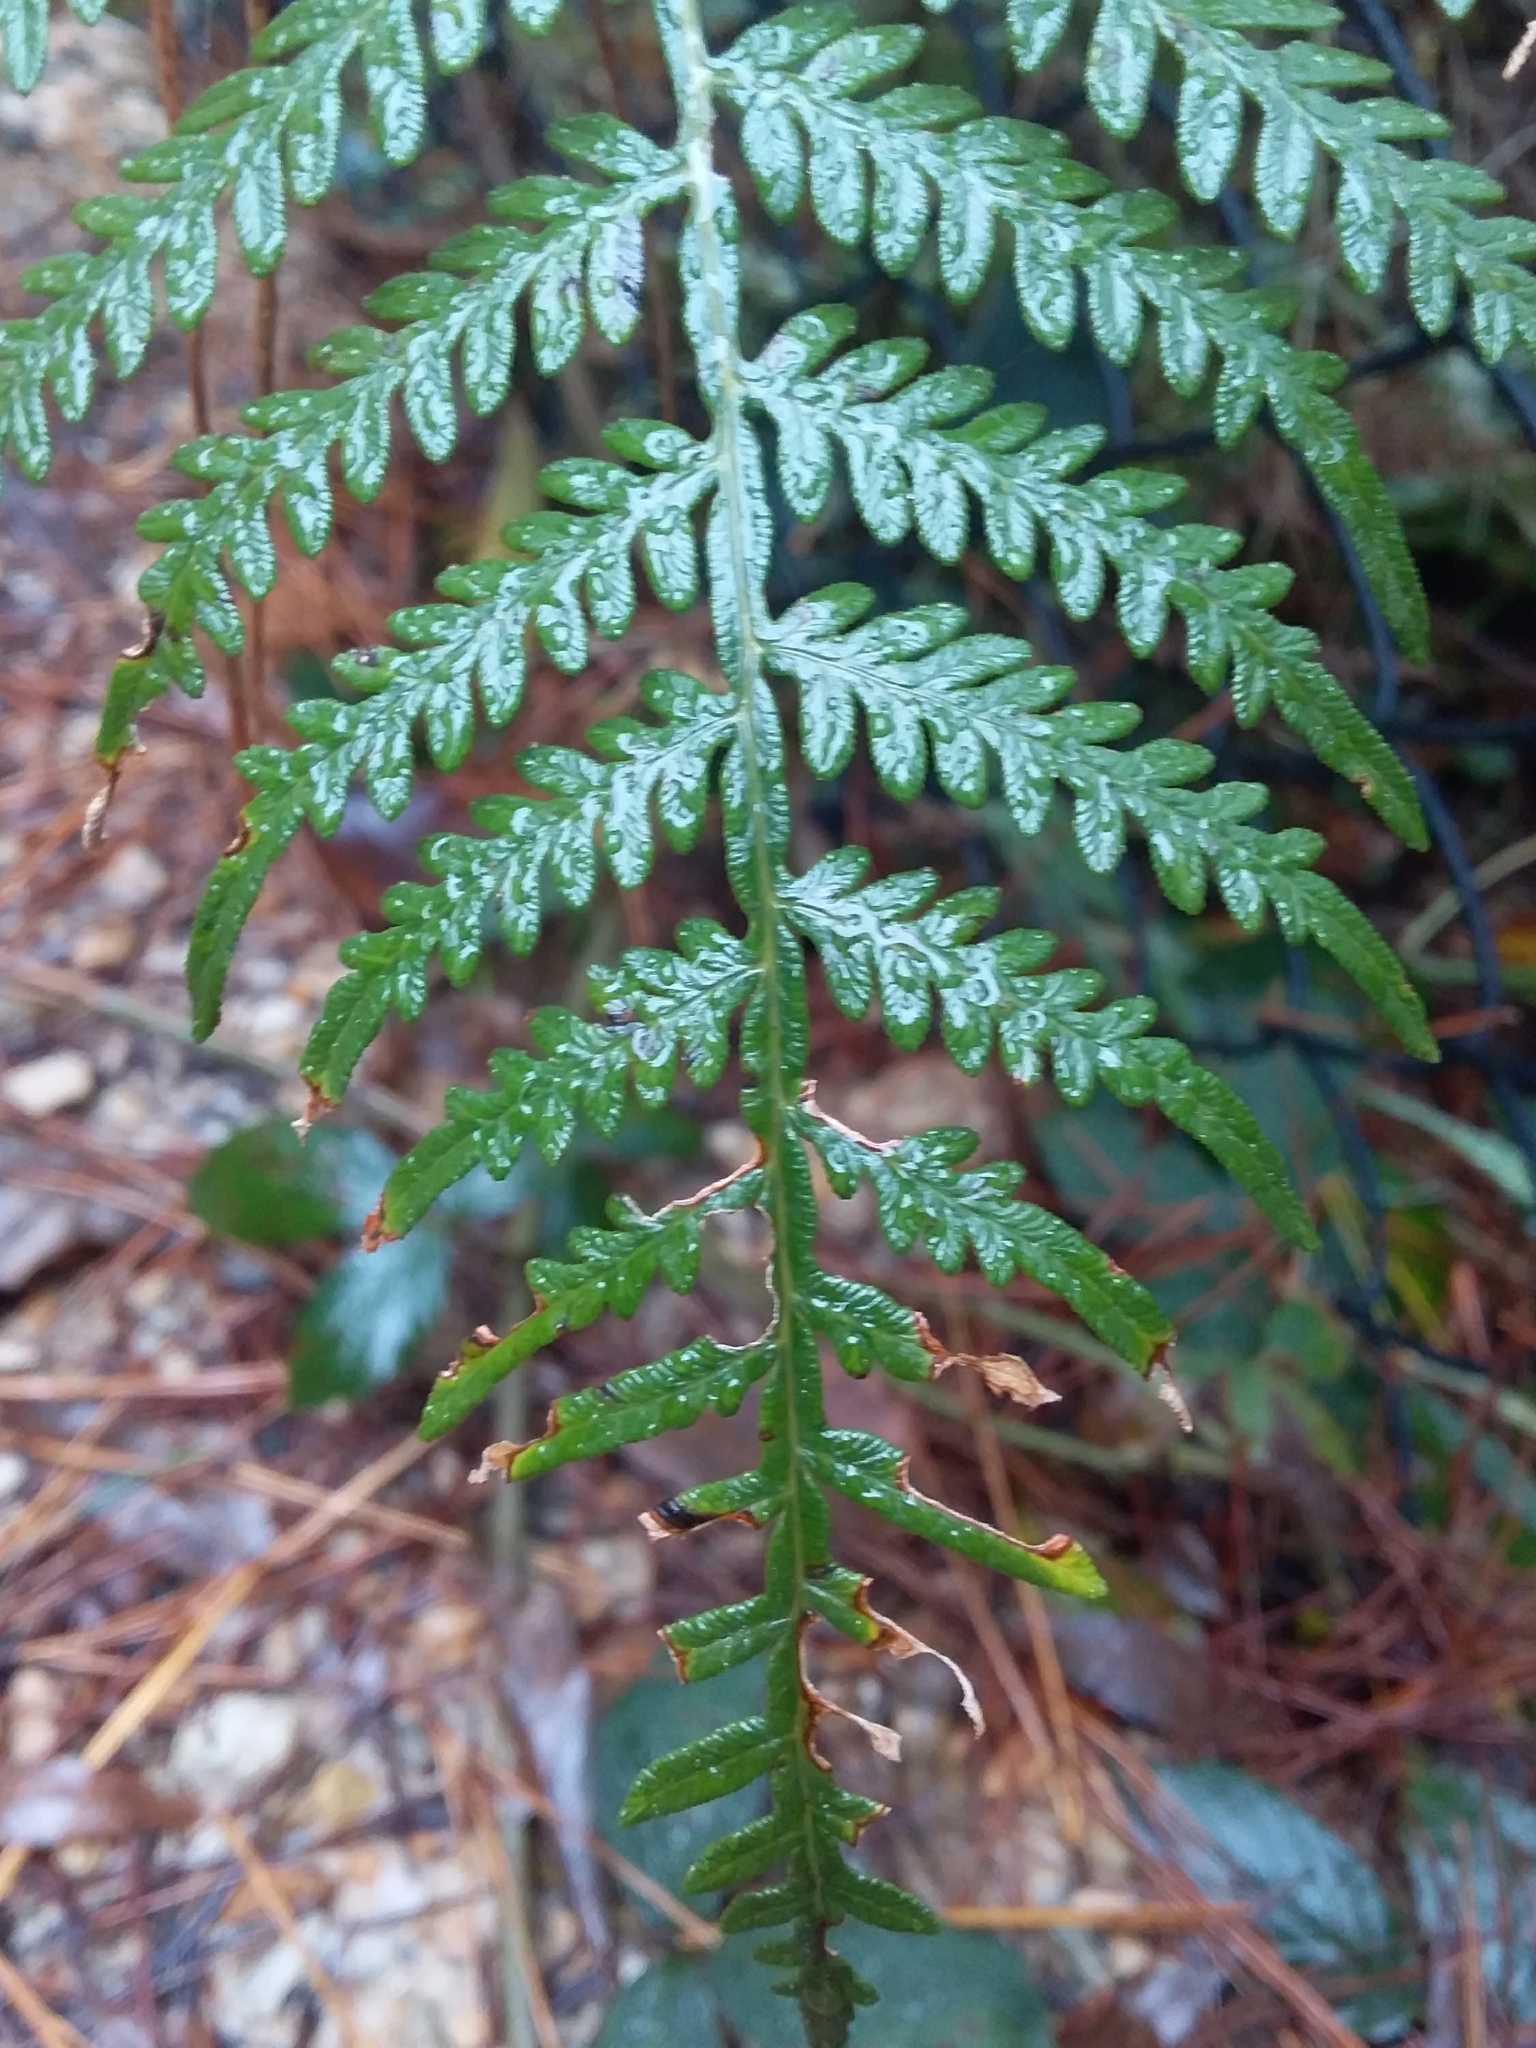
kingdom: Plantae
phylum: Tracheophyta
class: Polypodiopsida
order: Polypodiales
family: Dennstaedtiaceae
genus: Pteridium
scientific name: Pteridium esculentum
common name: Bracken fern
